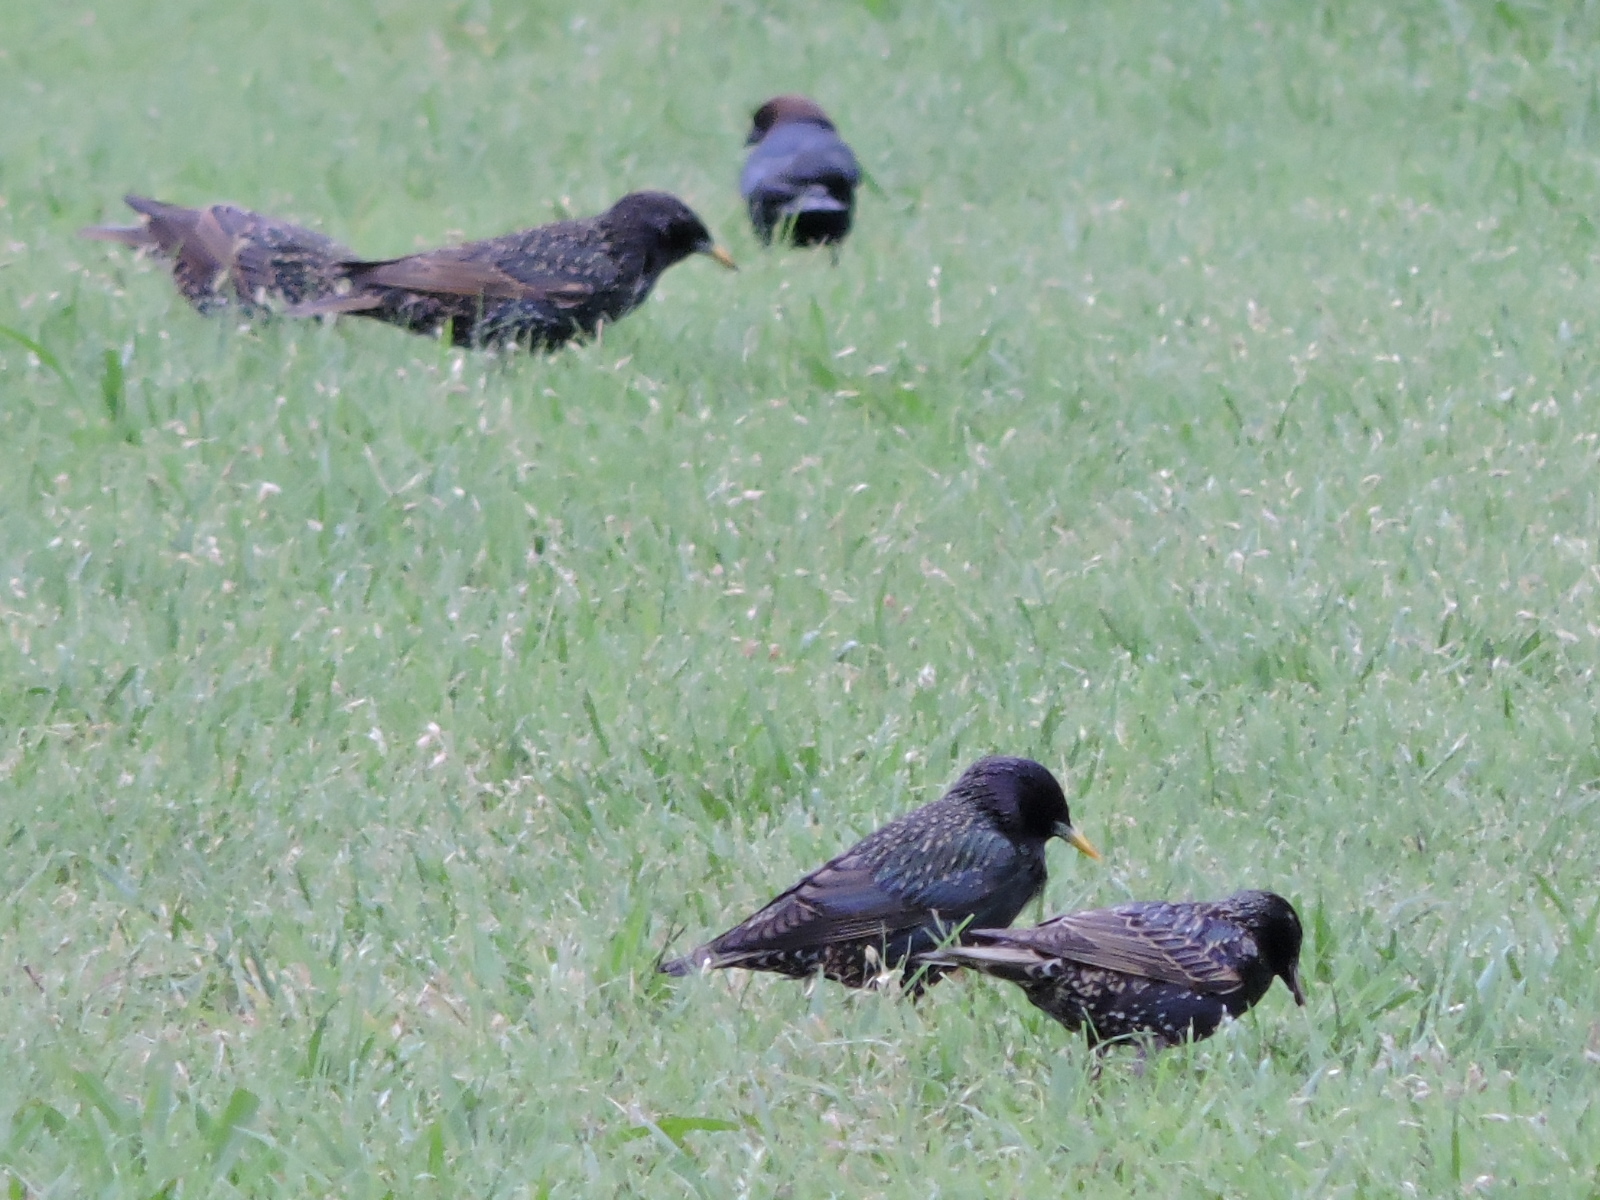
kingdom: Animalia
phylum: Chordata
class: Aves
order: Passeriformes
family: Sturnidae
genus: Sturnus
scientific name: Sturnus vulgaris
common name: Common starling
